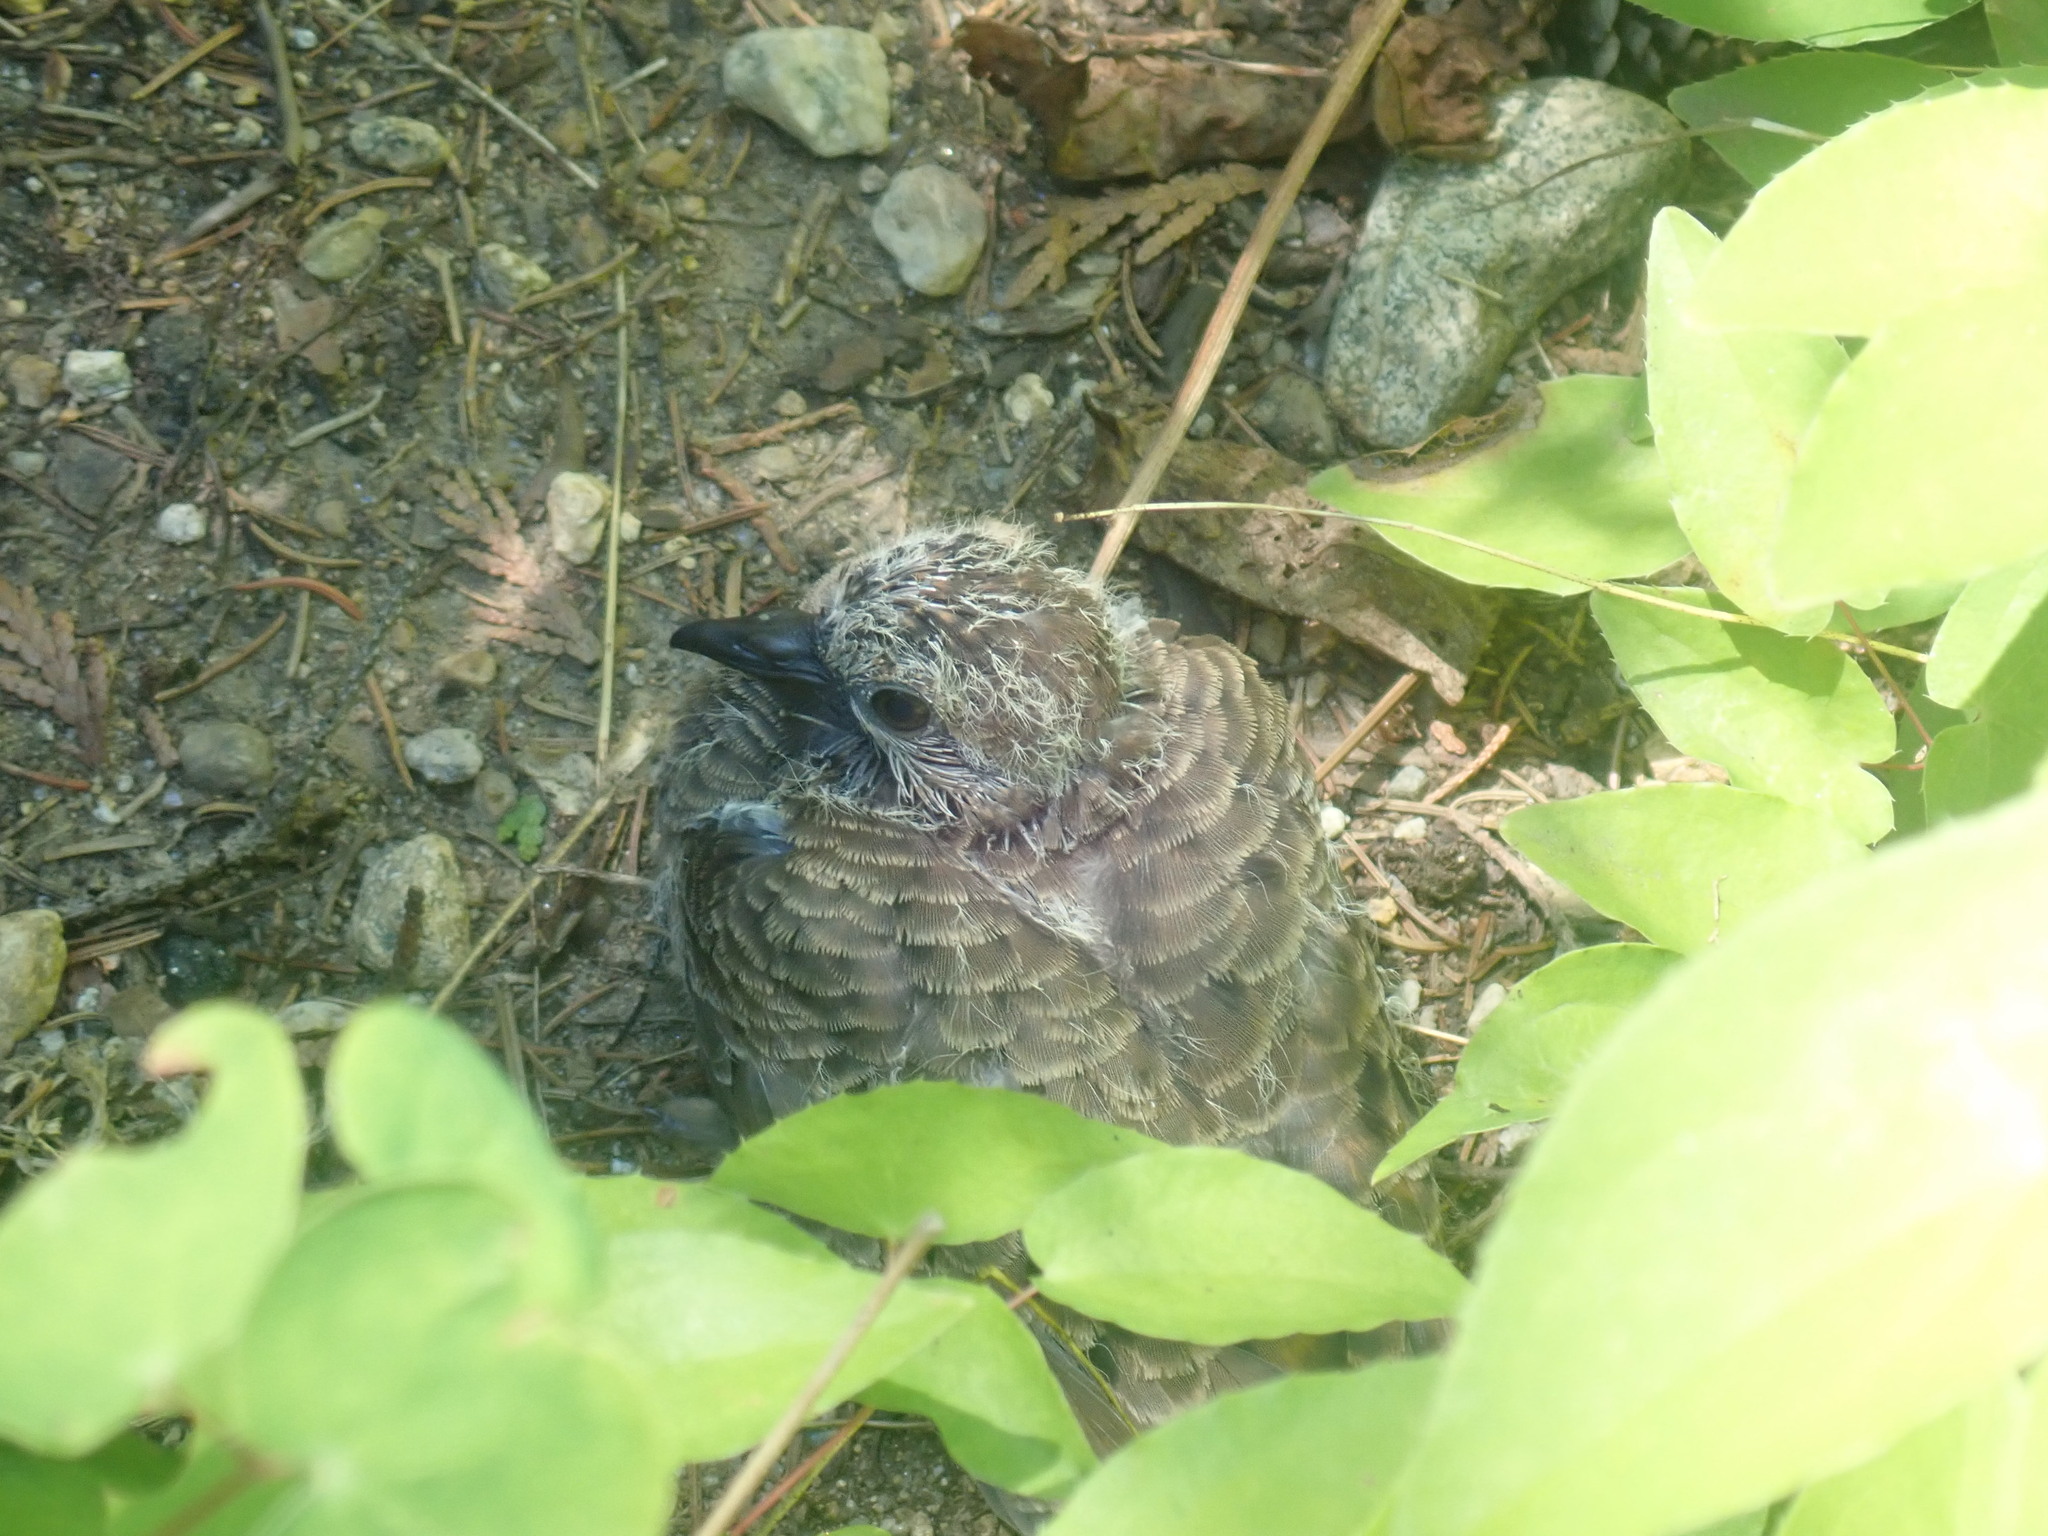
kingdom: Animalia
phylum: Chordata
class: Aves
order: Columbiformes
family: Columbidae
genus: Zenaida
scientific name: Zenaida macroura
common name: Mourning dove
